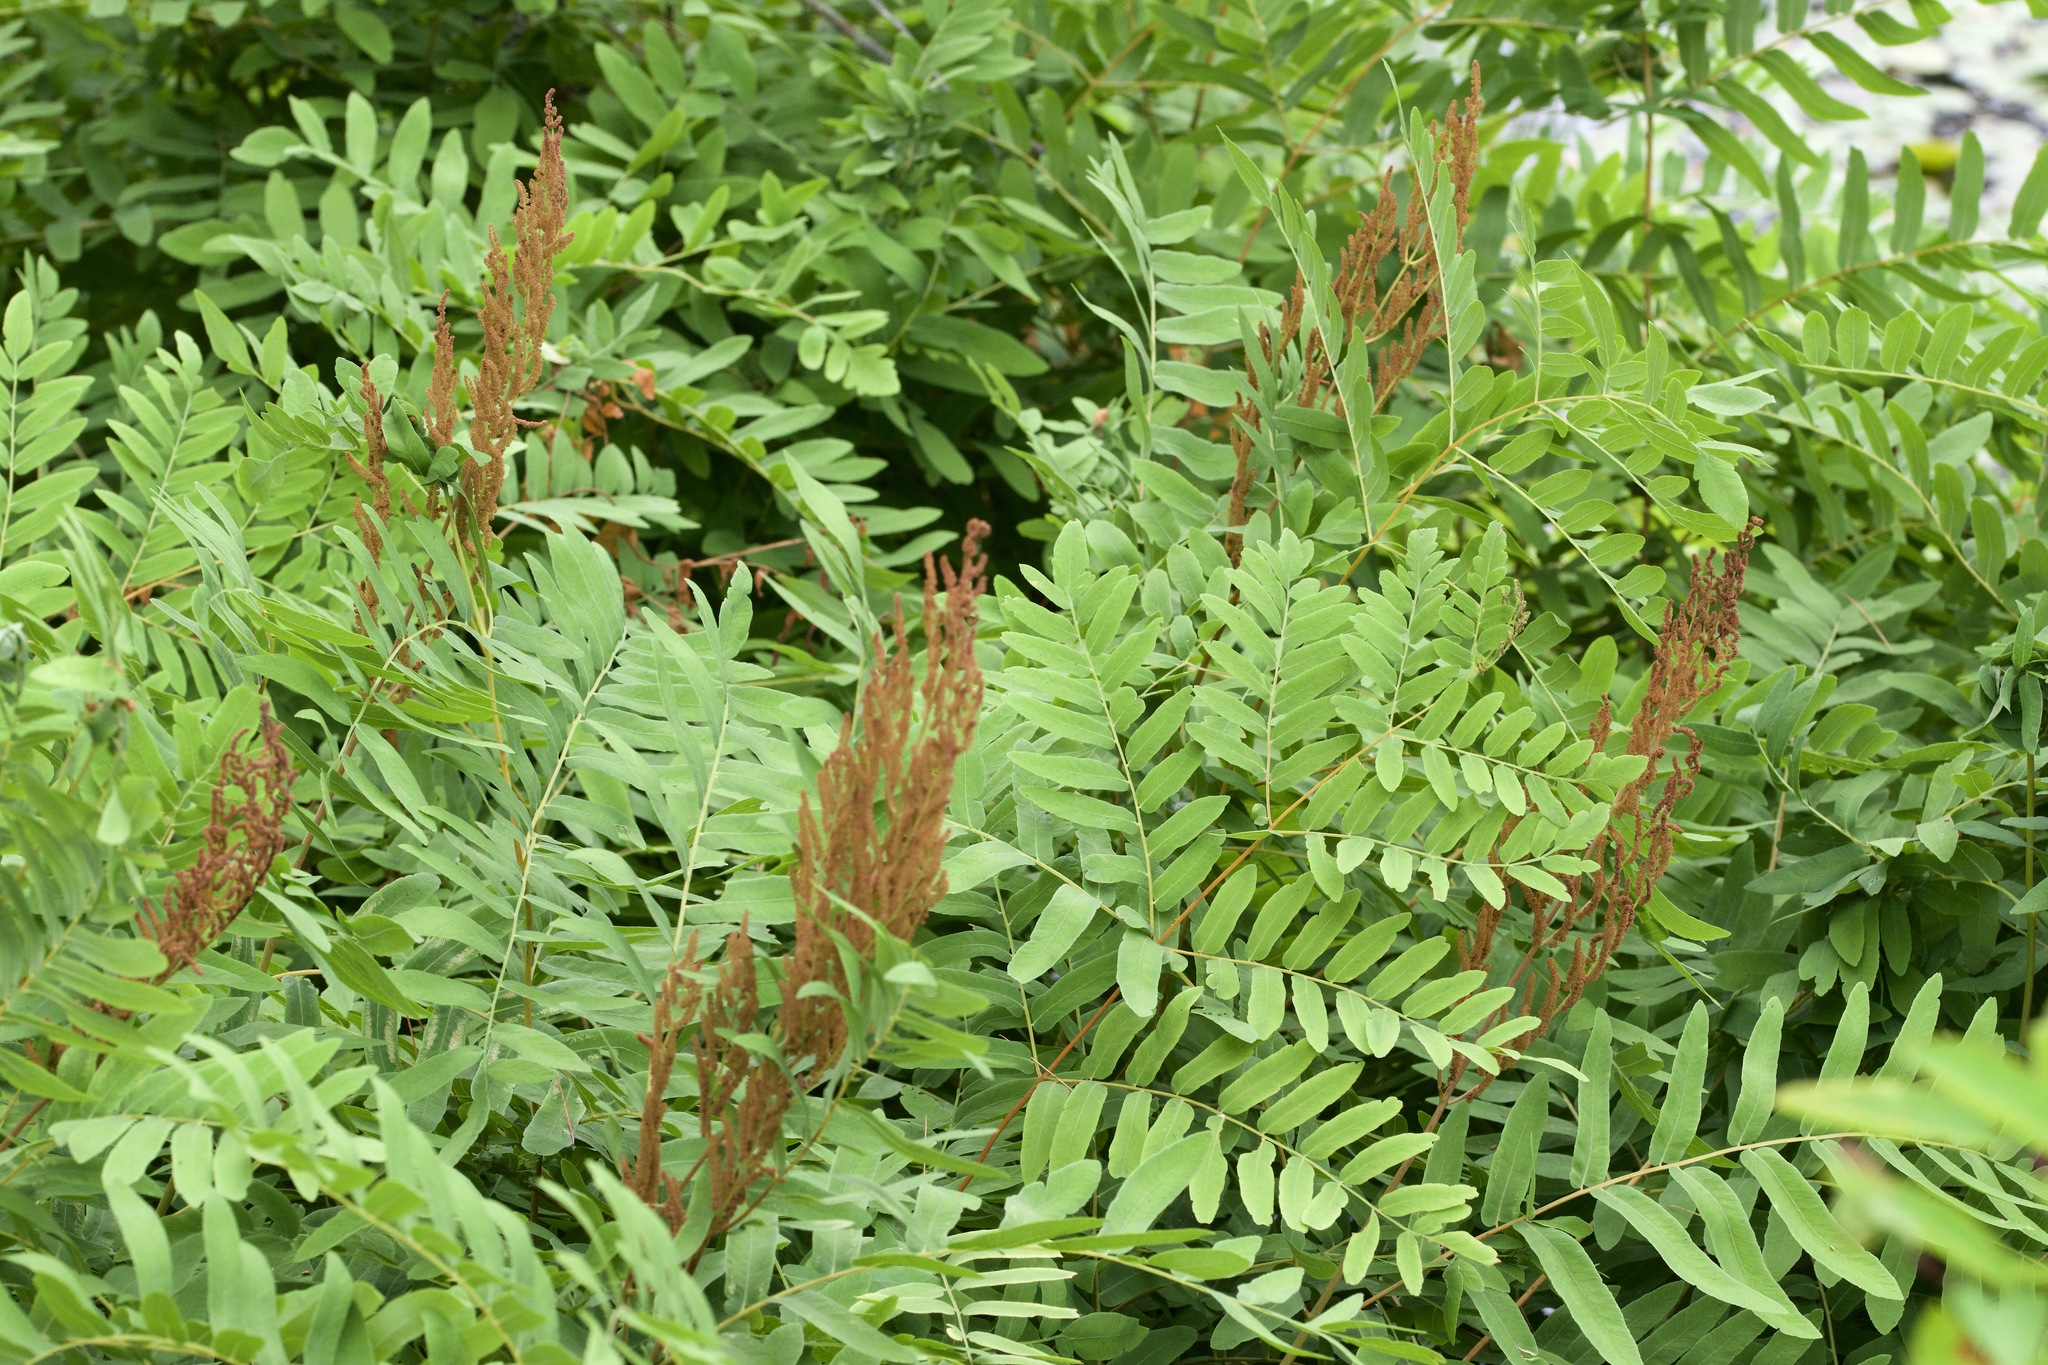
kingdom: Plantae
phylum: Tracheophyta
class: Polypodiopsida
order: Osmundales
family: Osmundaceae
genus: Osmunda
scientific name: Osmunda spectabilis
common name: American royal fern
